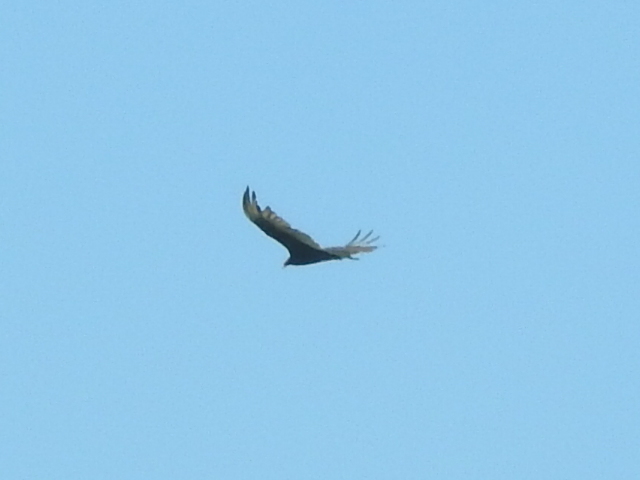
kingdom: Animalia
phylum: Chordata
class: Aves
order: Accipitriformes
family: Cathartidae
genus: Cathartes
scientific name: Cathartes aura
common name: Turkey vulture
